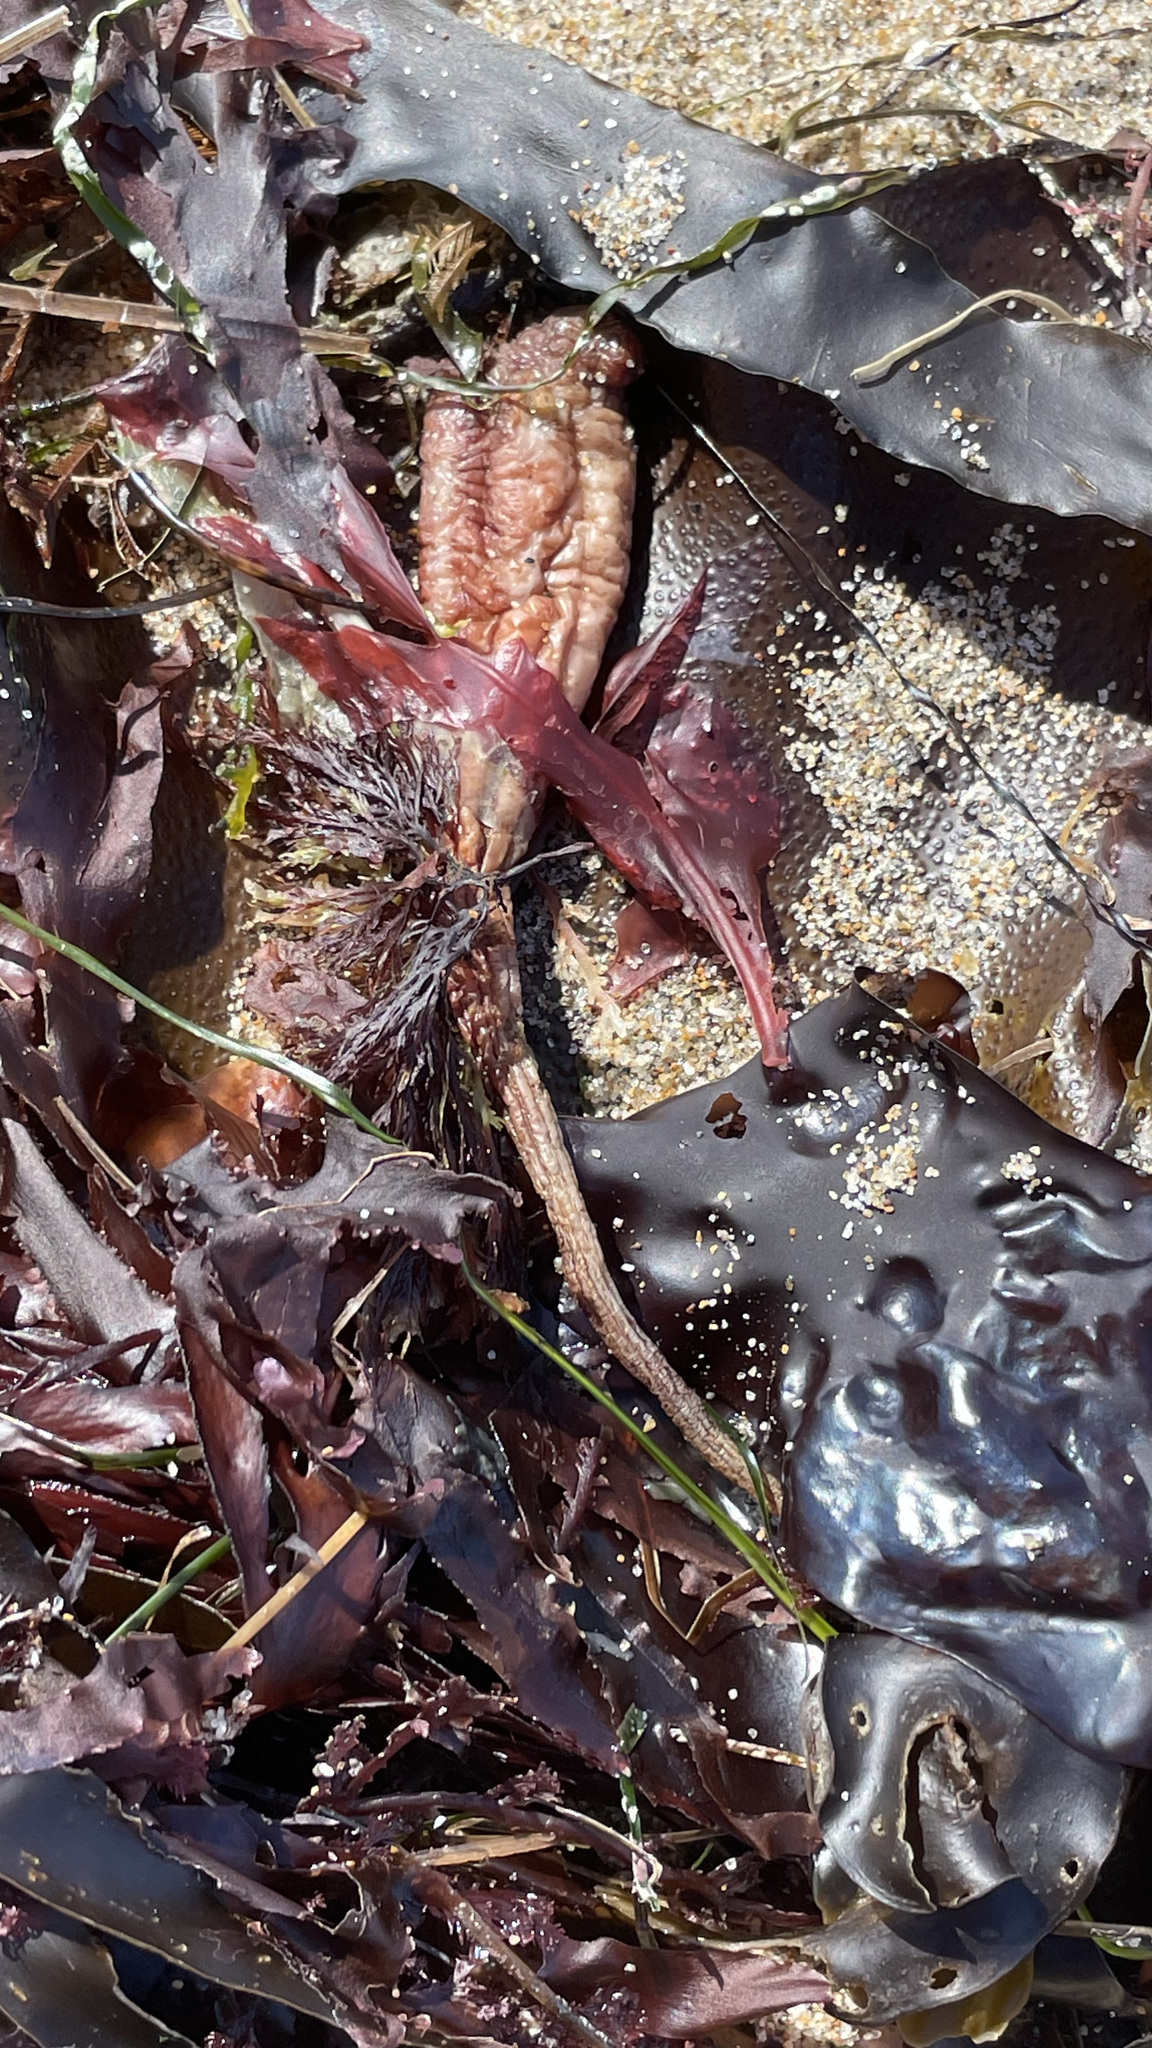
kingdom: Animalia
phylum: Chordata
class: Ascidiacea
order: Stolidobranchia
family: Styelidae
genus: Styela
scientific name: Styela montereyensis
